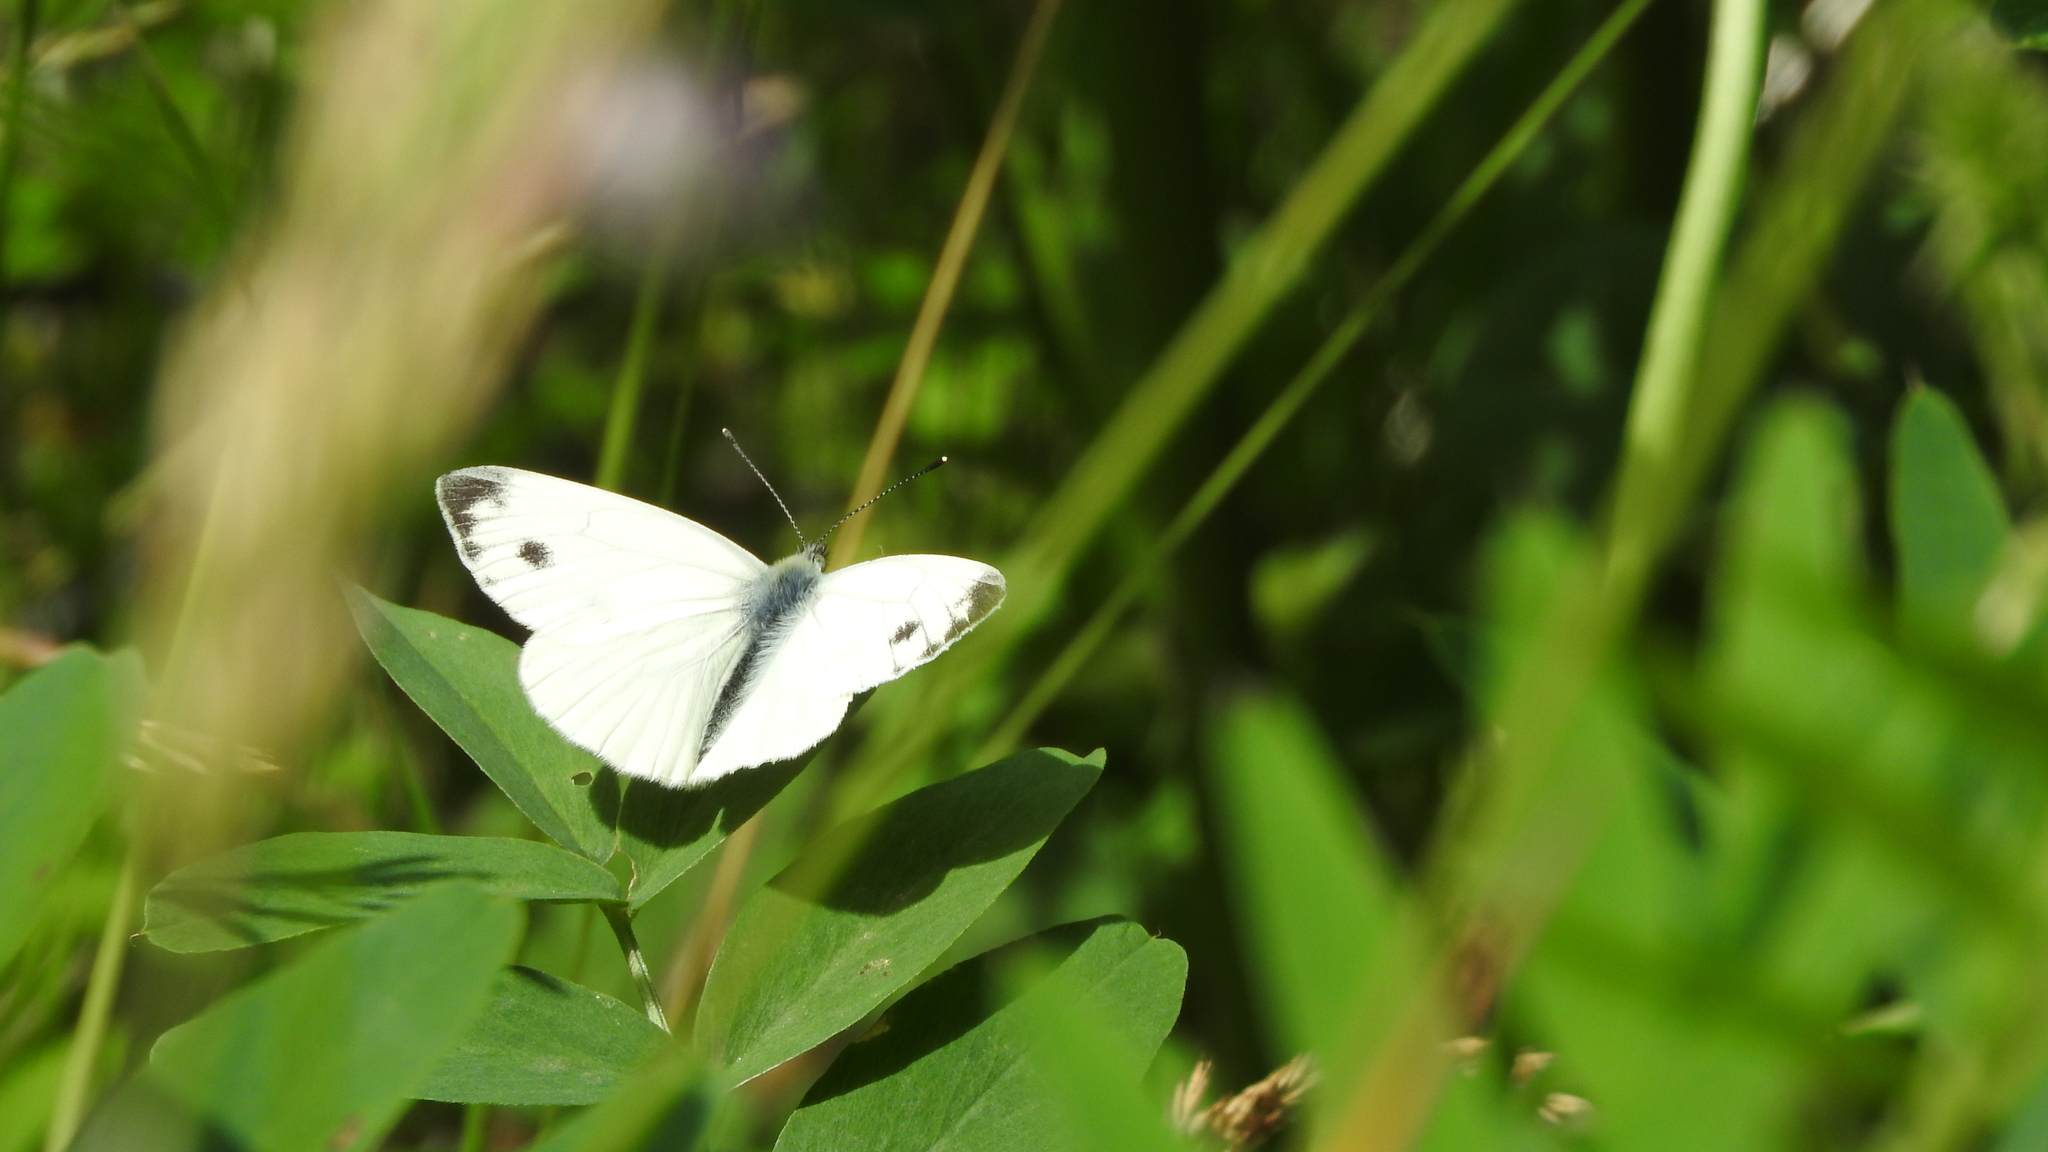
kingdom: Animalia
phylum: Arthropoda
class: Insecta
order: Lepidoptera
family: Pieridae
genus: Pieris
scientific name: Pieris napi
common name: Green-veined white
